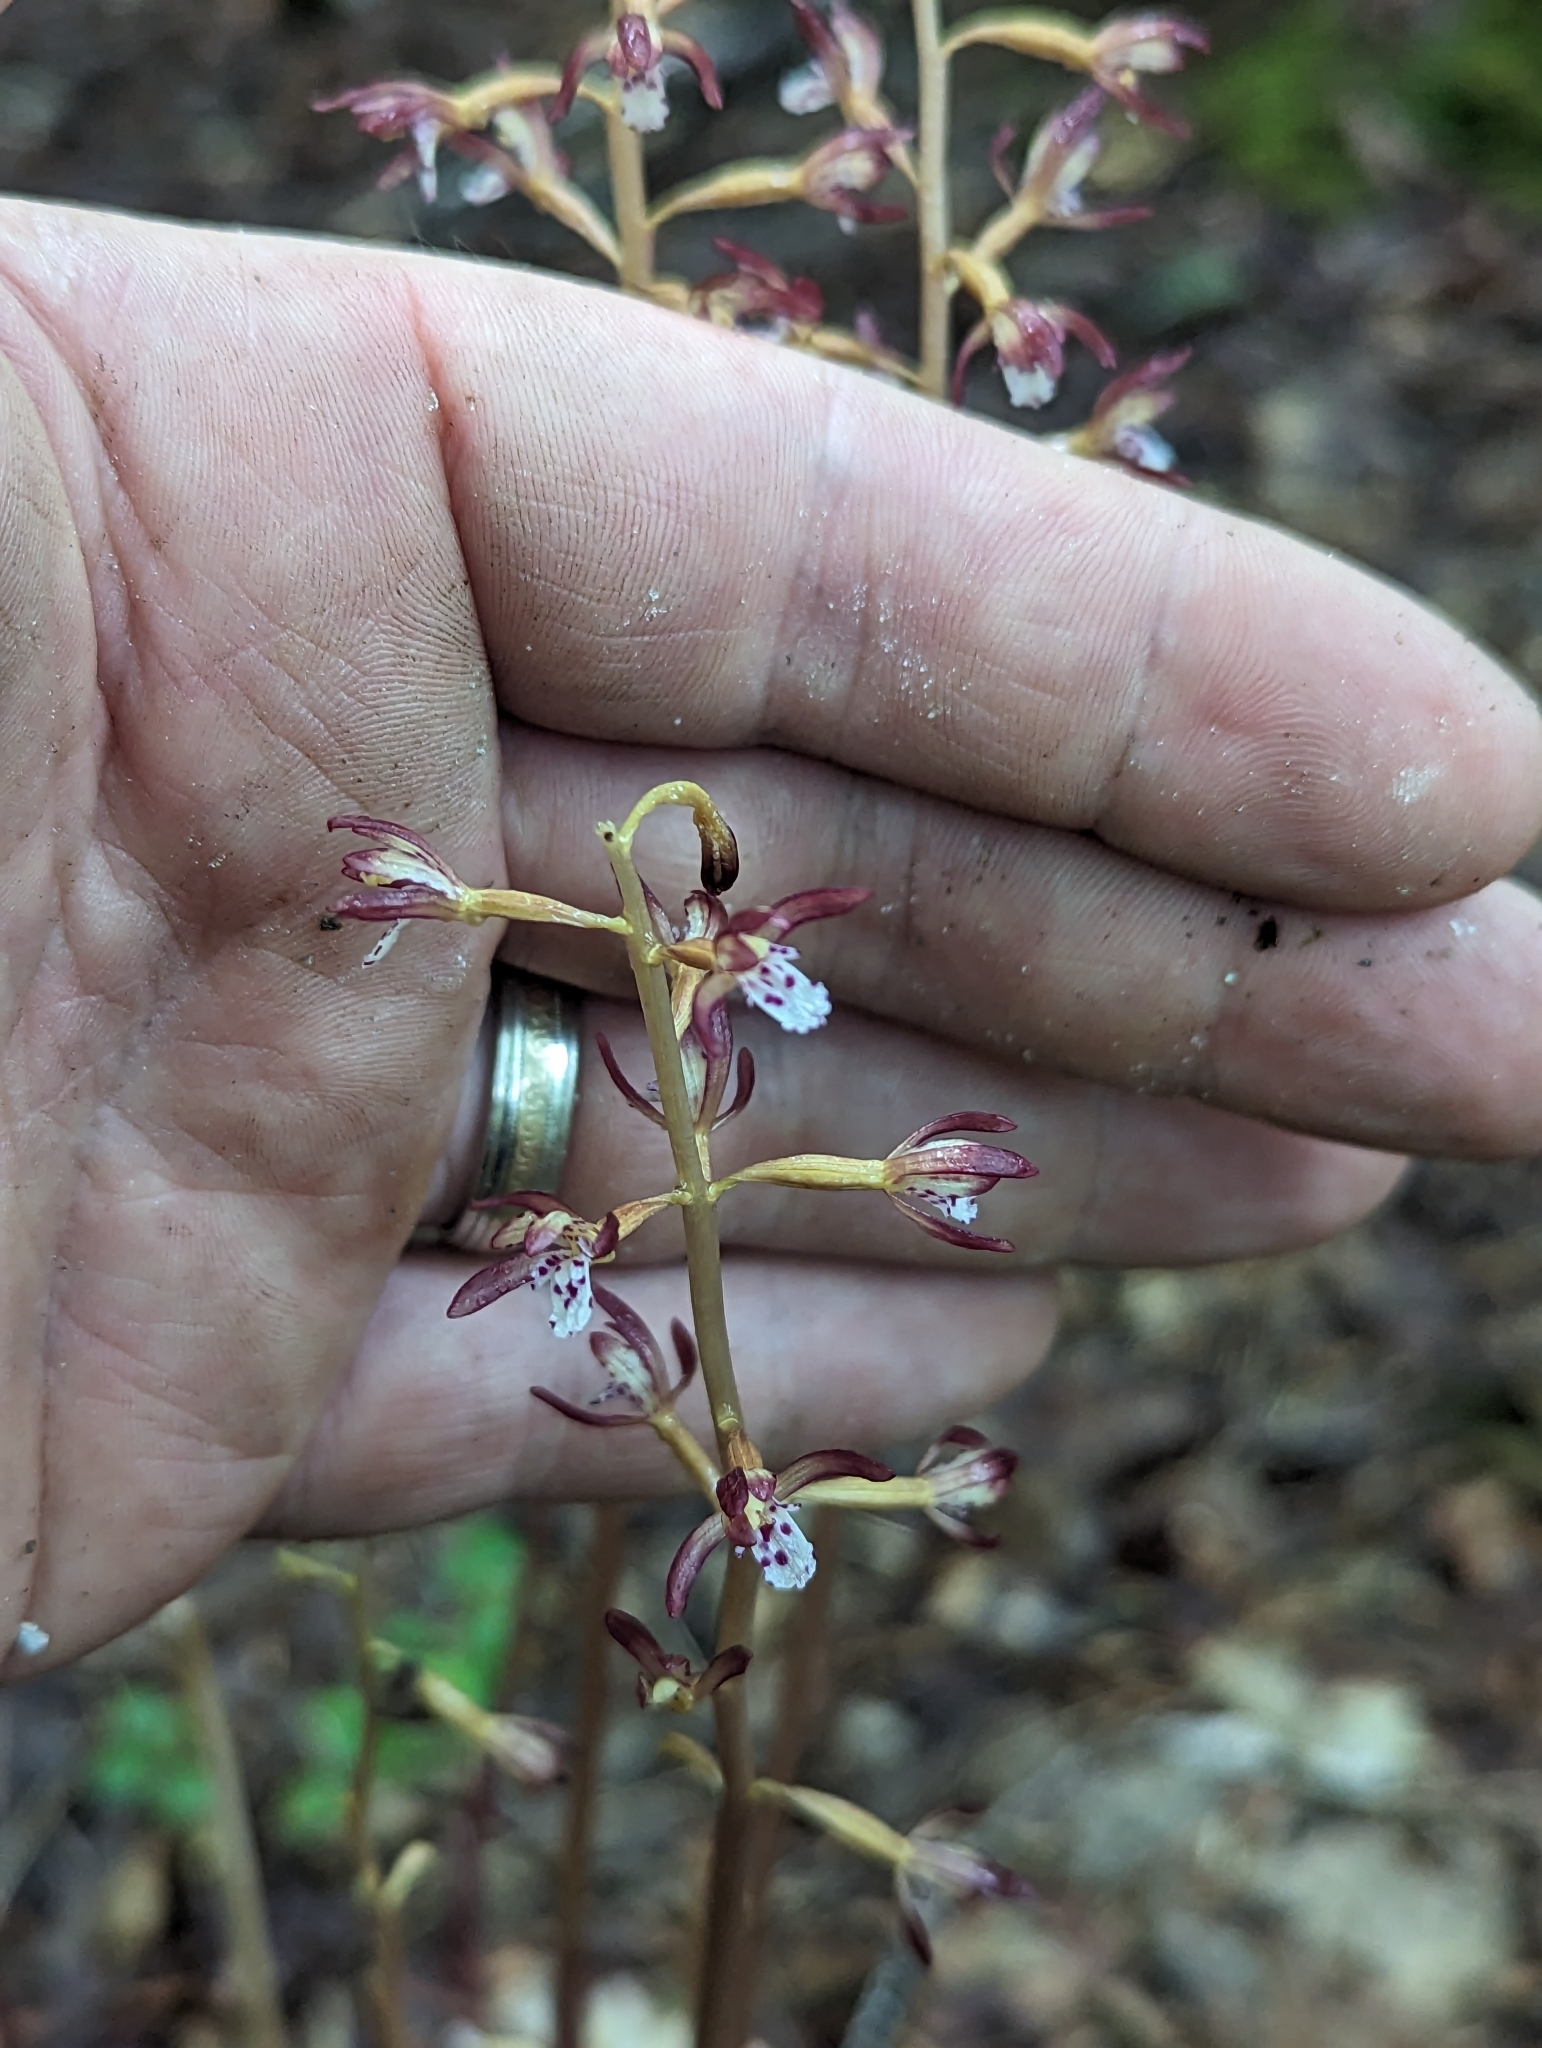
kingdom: Plantae
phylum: Tracheophyta
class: Liliopsida
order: Asparagales
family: Orchidaceae
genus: Corallorhiza
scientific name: Corallorhiza maculata
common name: Spotted coralroot
